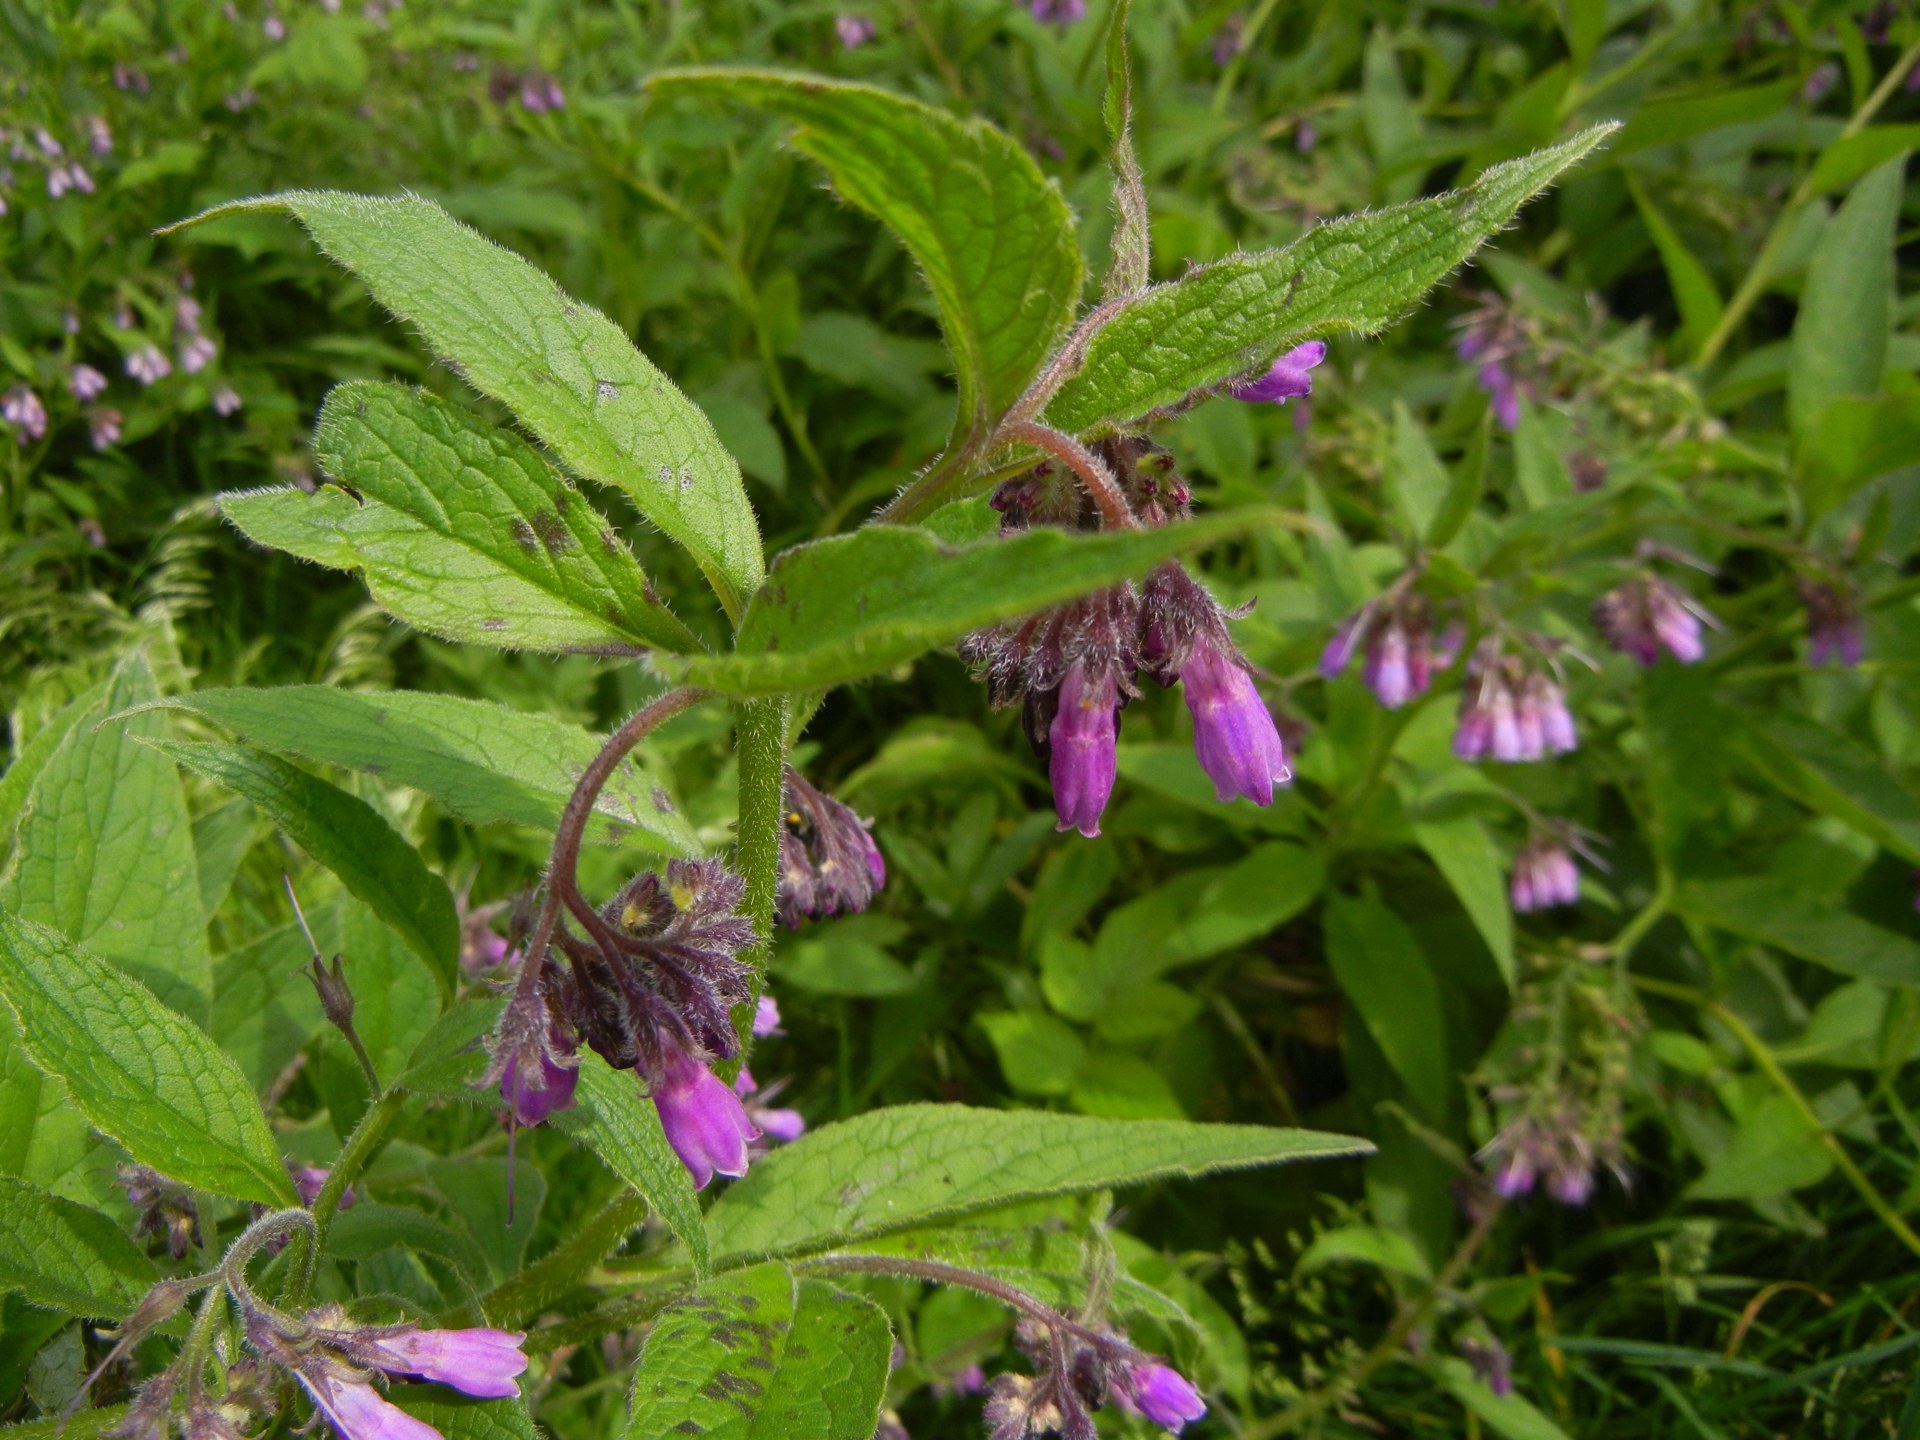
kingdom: Plantae
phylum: Tracheophyta
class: Magnoliopsida
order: Boraginales
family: Boraginaceae
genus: Symphytum
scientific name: Symphytum uplandicum
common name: Russian comfrey
